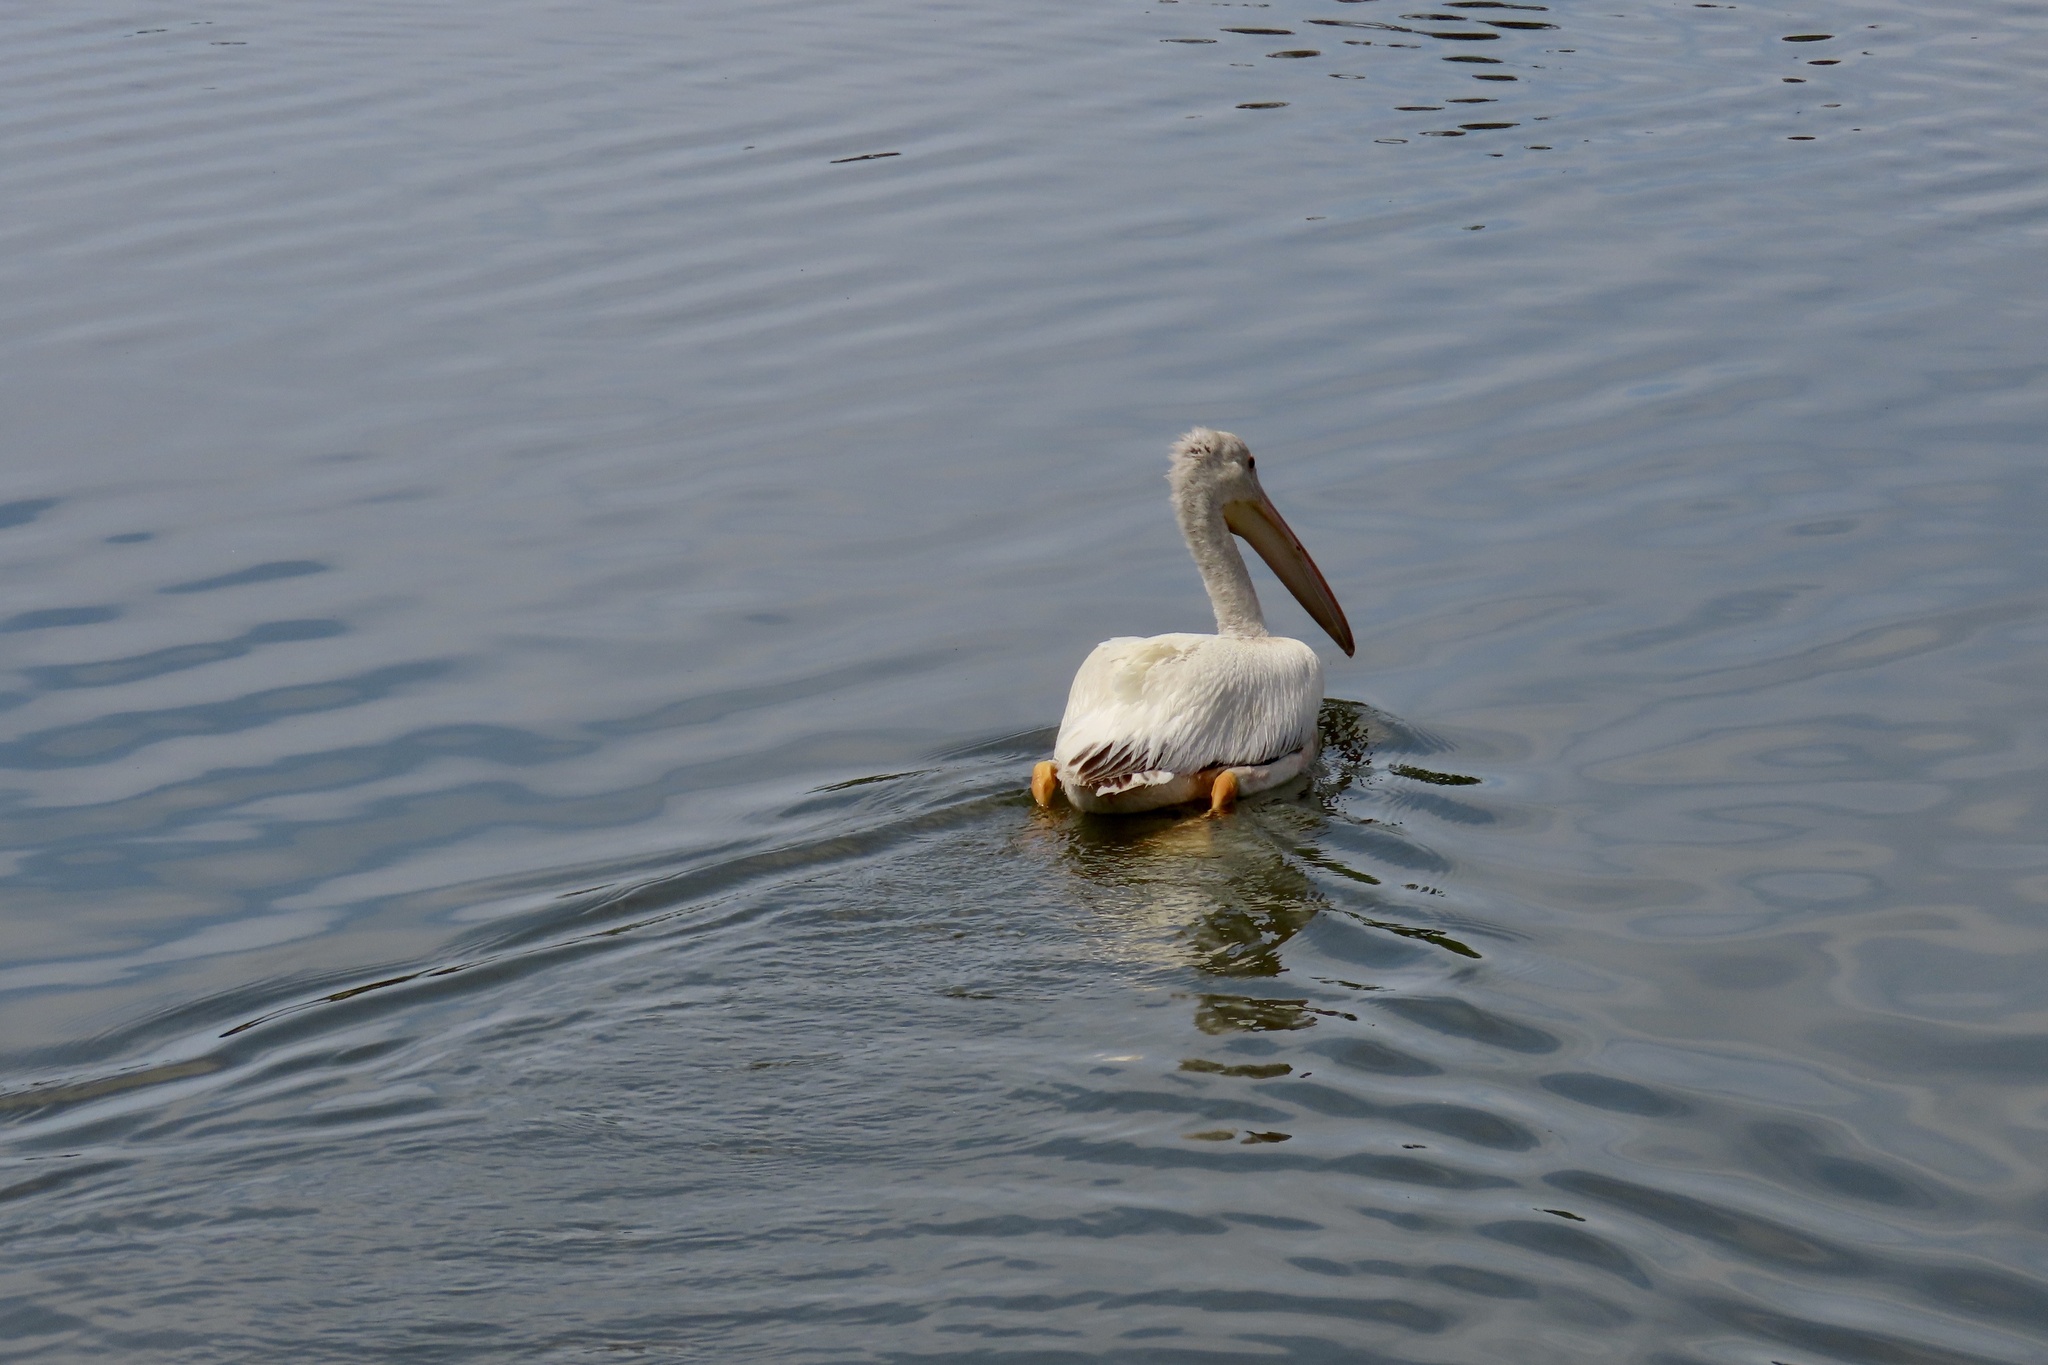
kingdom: Animalia
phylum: Chordata
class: Aves
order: Pelecaniformes
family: Pelecanidae
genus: Pelecanus
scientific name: Pelecanus erythrorhynchos
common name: American white pelican
